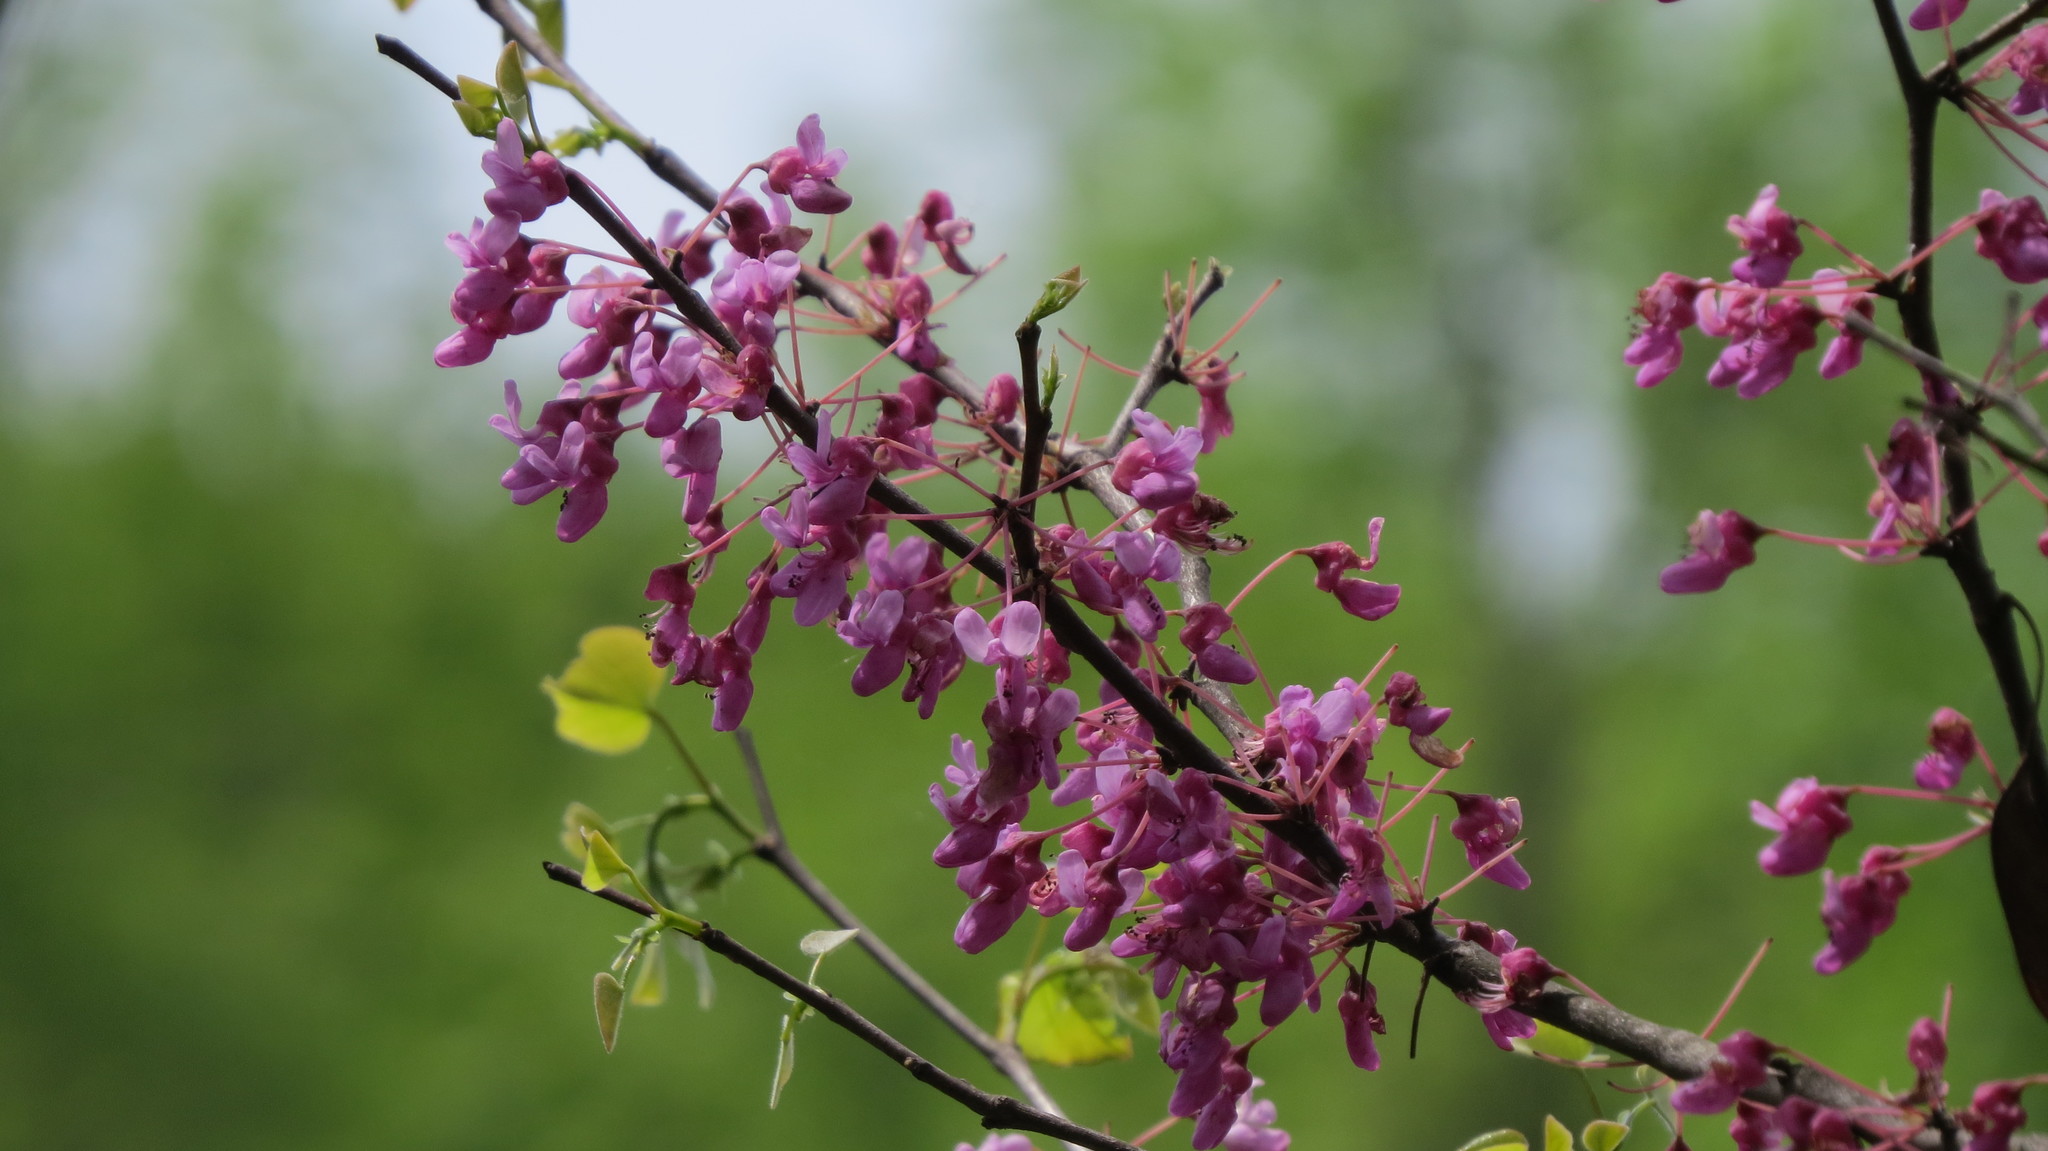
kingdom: Plantae
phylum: Tracheophyta
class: Magnoliopsida
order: Fabales
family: Fabaceae
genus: Cercis
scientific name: Cercis canadensis
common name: Eastern redbud
